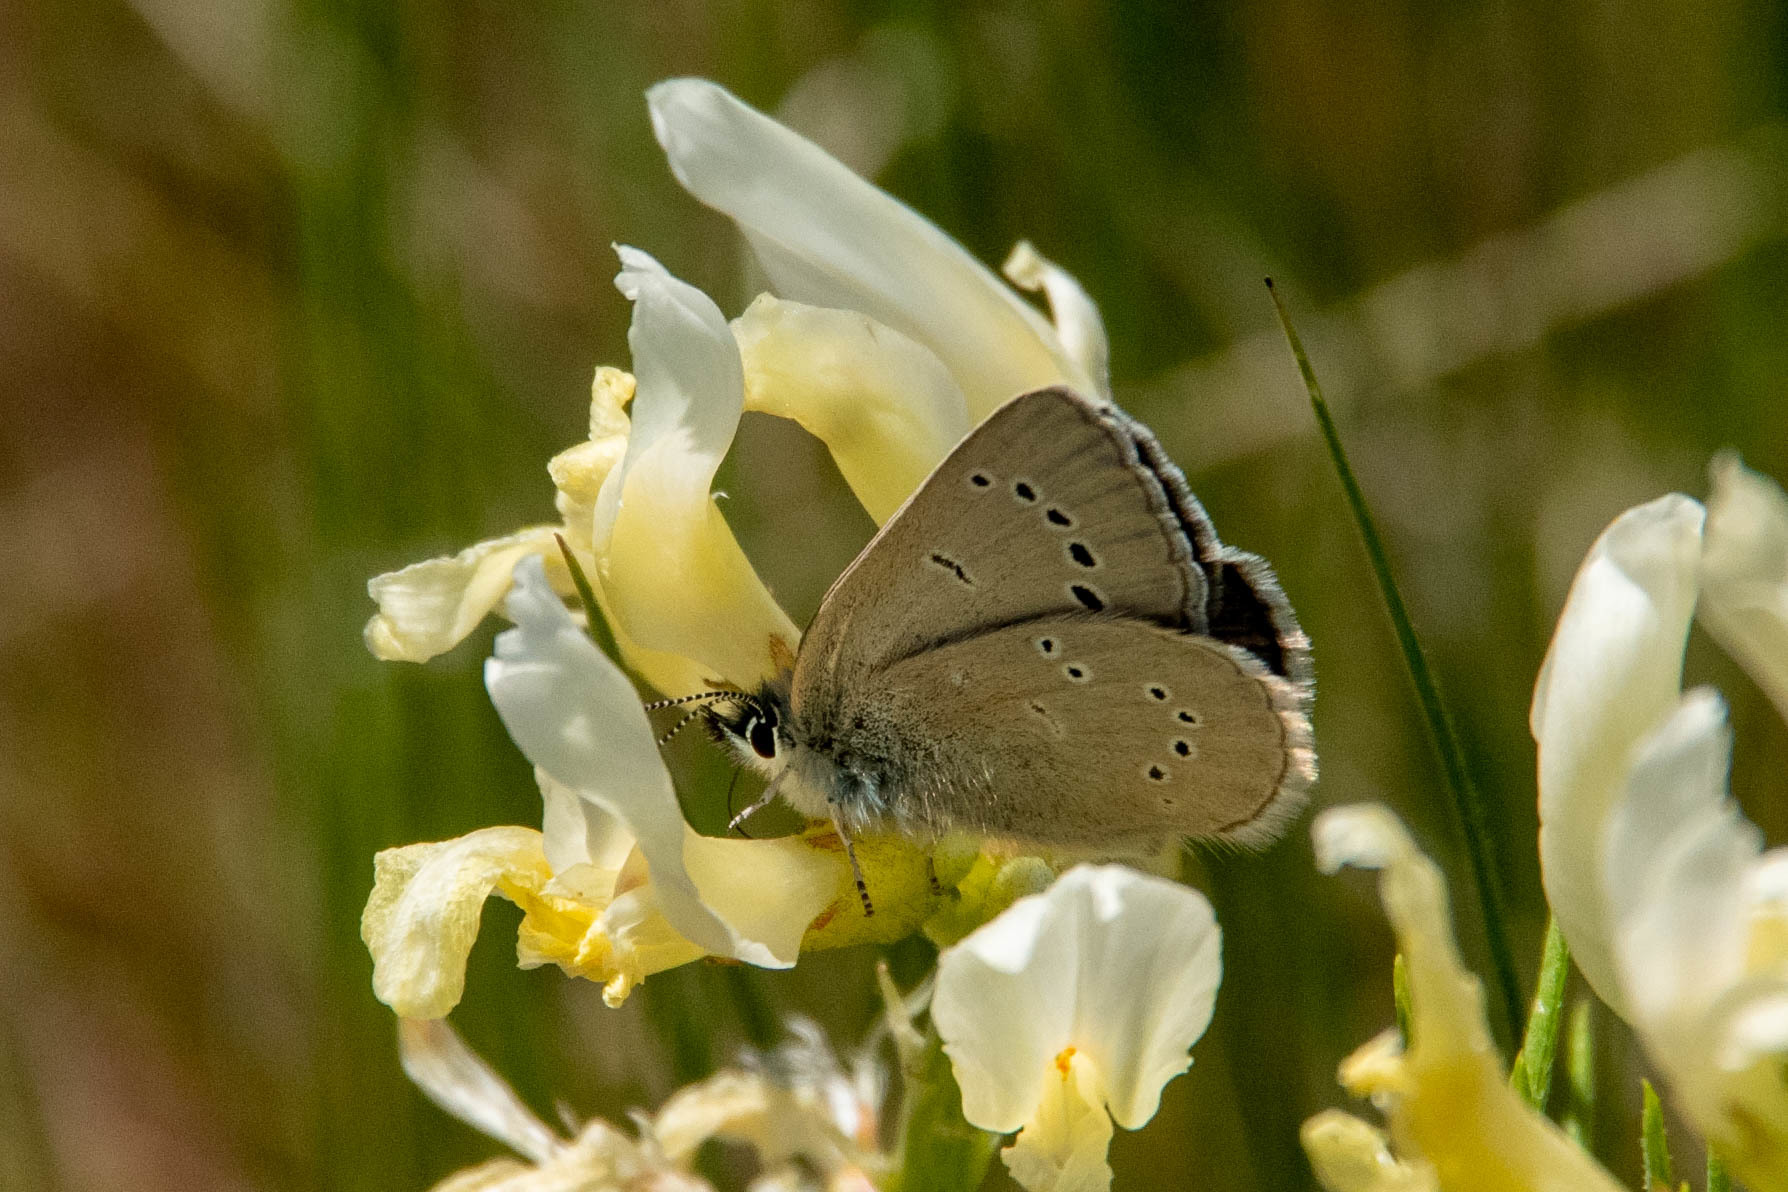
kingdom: Animalia
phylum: Arthropoda
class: Insecta
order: Lepidoptera
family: Lycaenidae
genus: Glaucopsyche
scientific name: Glaucopsyche lygdamus
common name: Silvery blue
